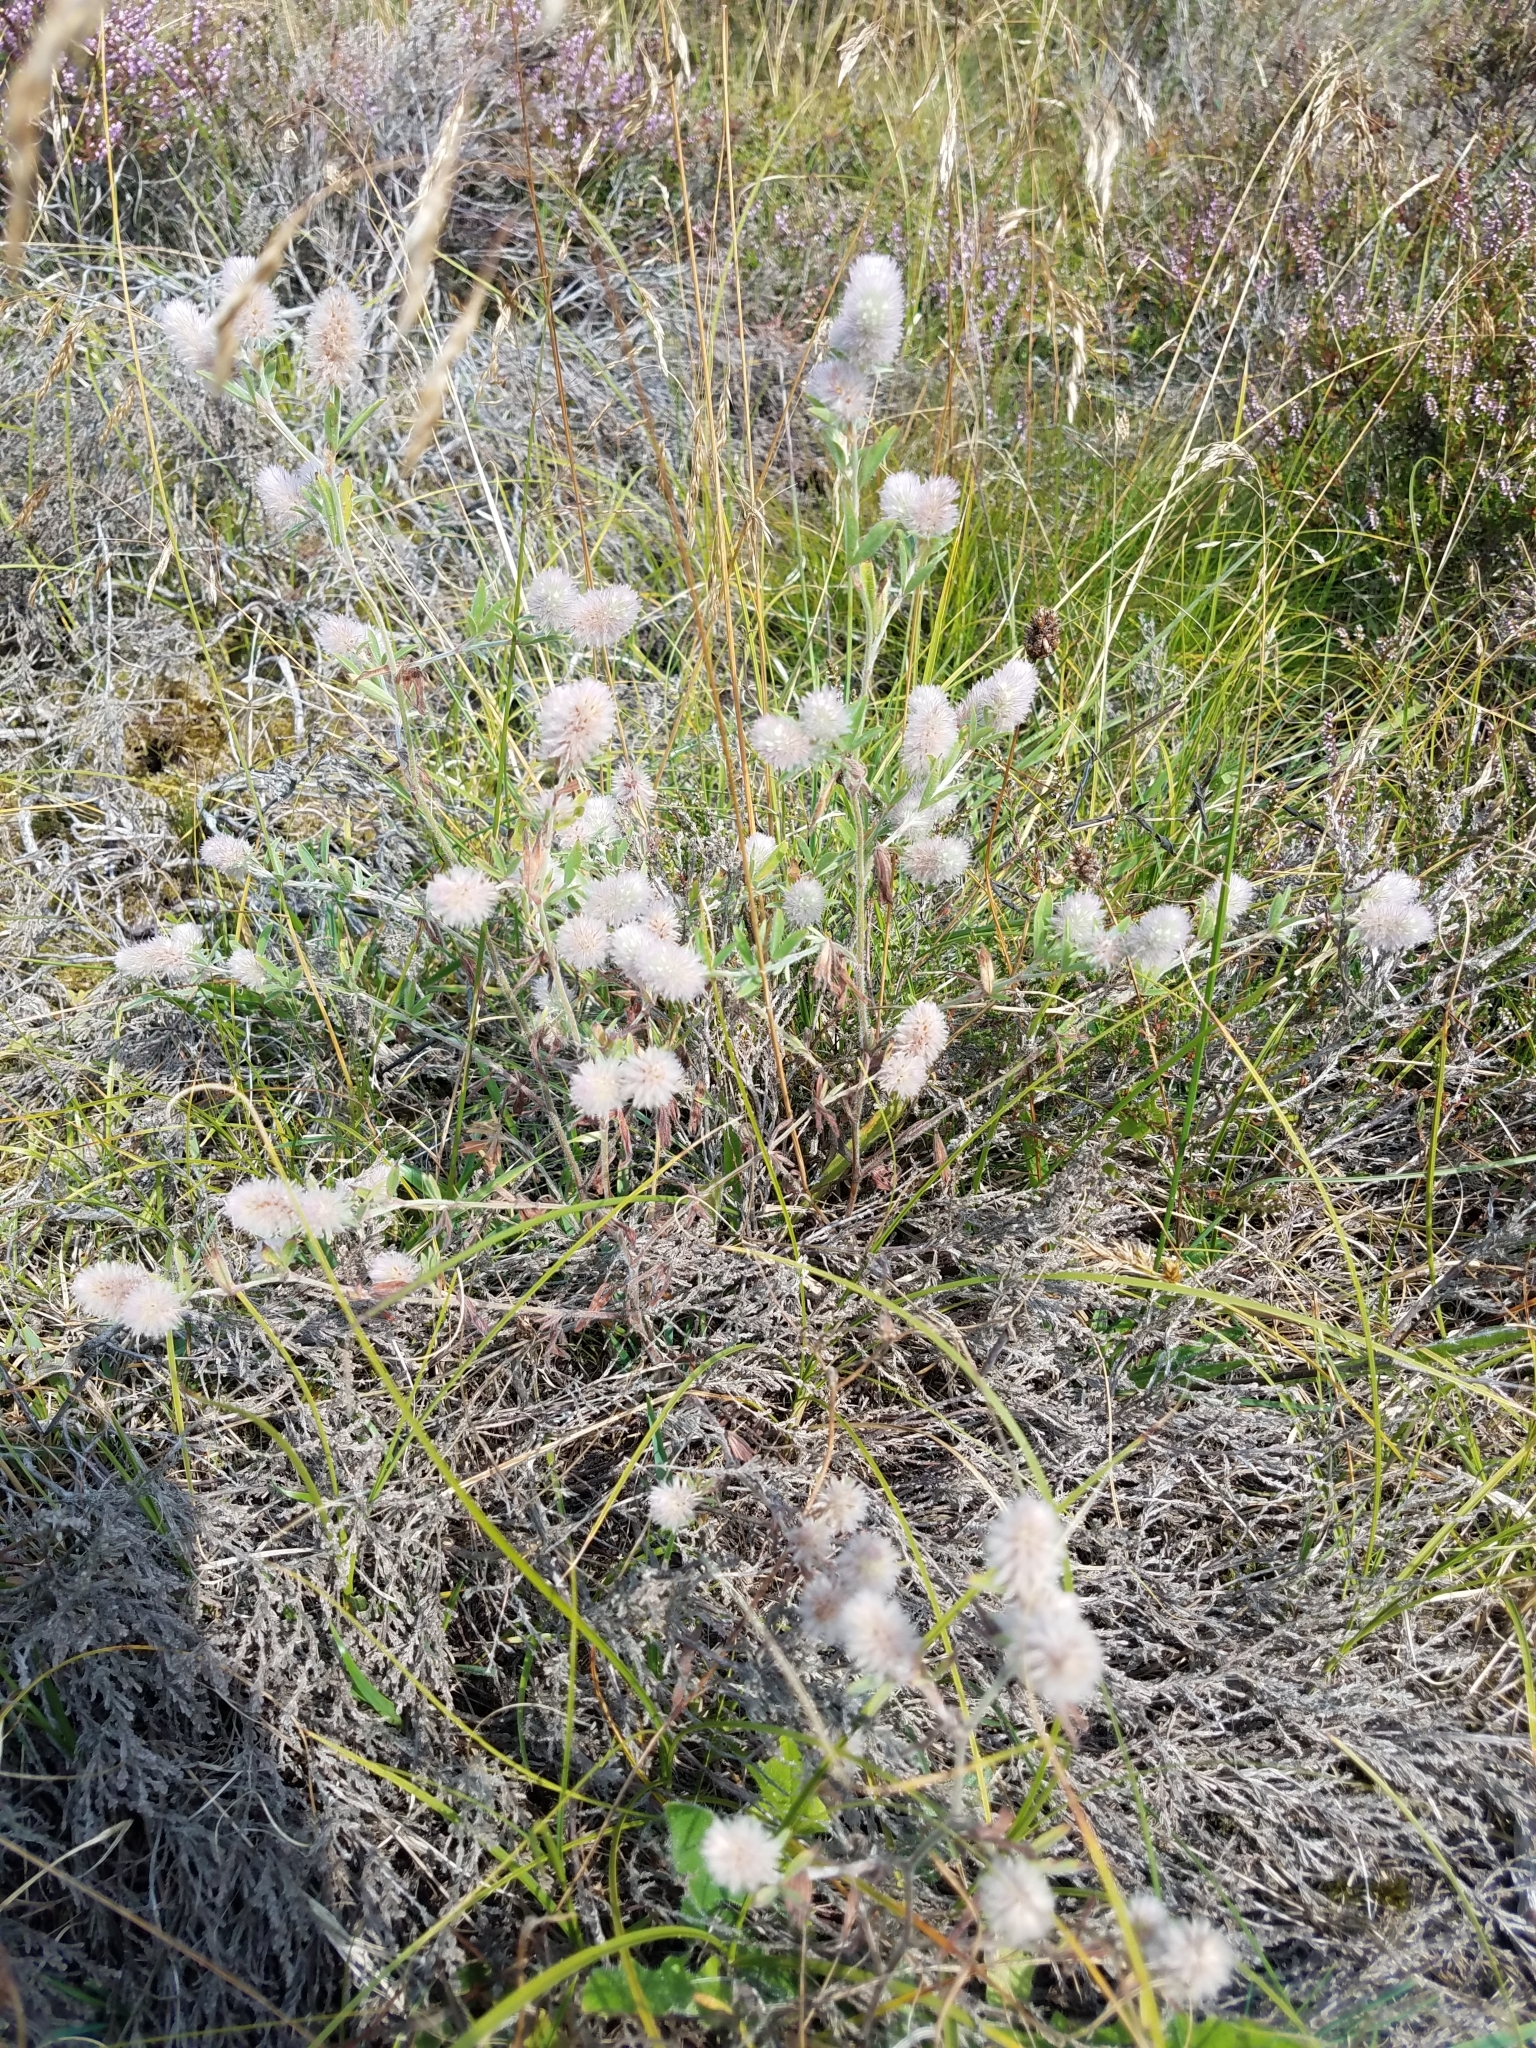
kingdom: Plantae
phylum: Tracheophyta
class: Magnoliopsida
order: Fabales
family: Fabaceae
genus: Trifolium
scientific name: Trifolium arvense
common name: Hare's-foot clover
